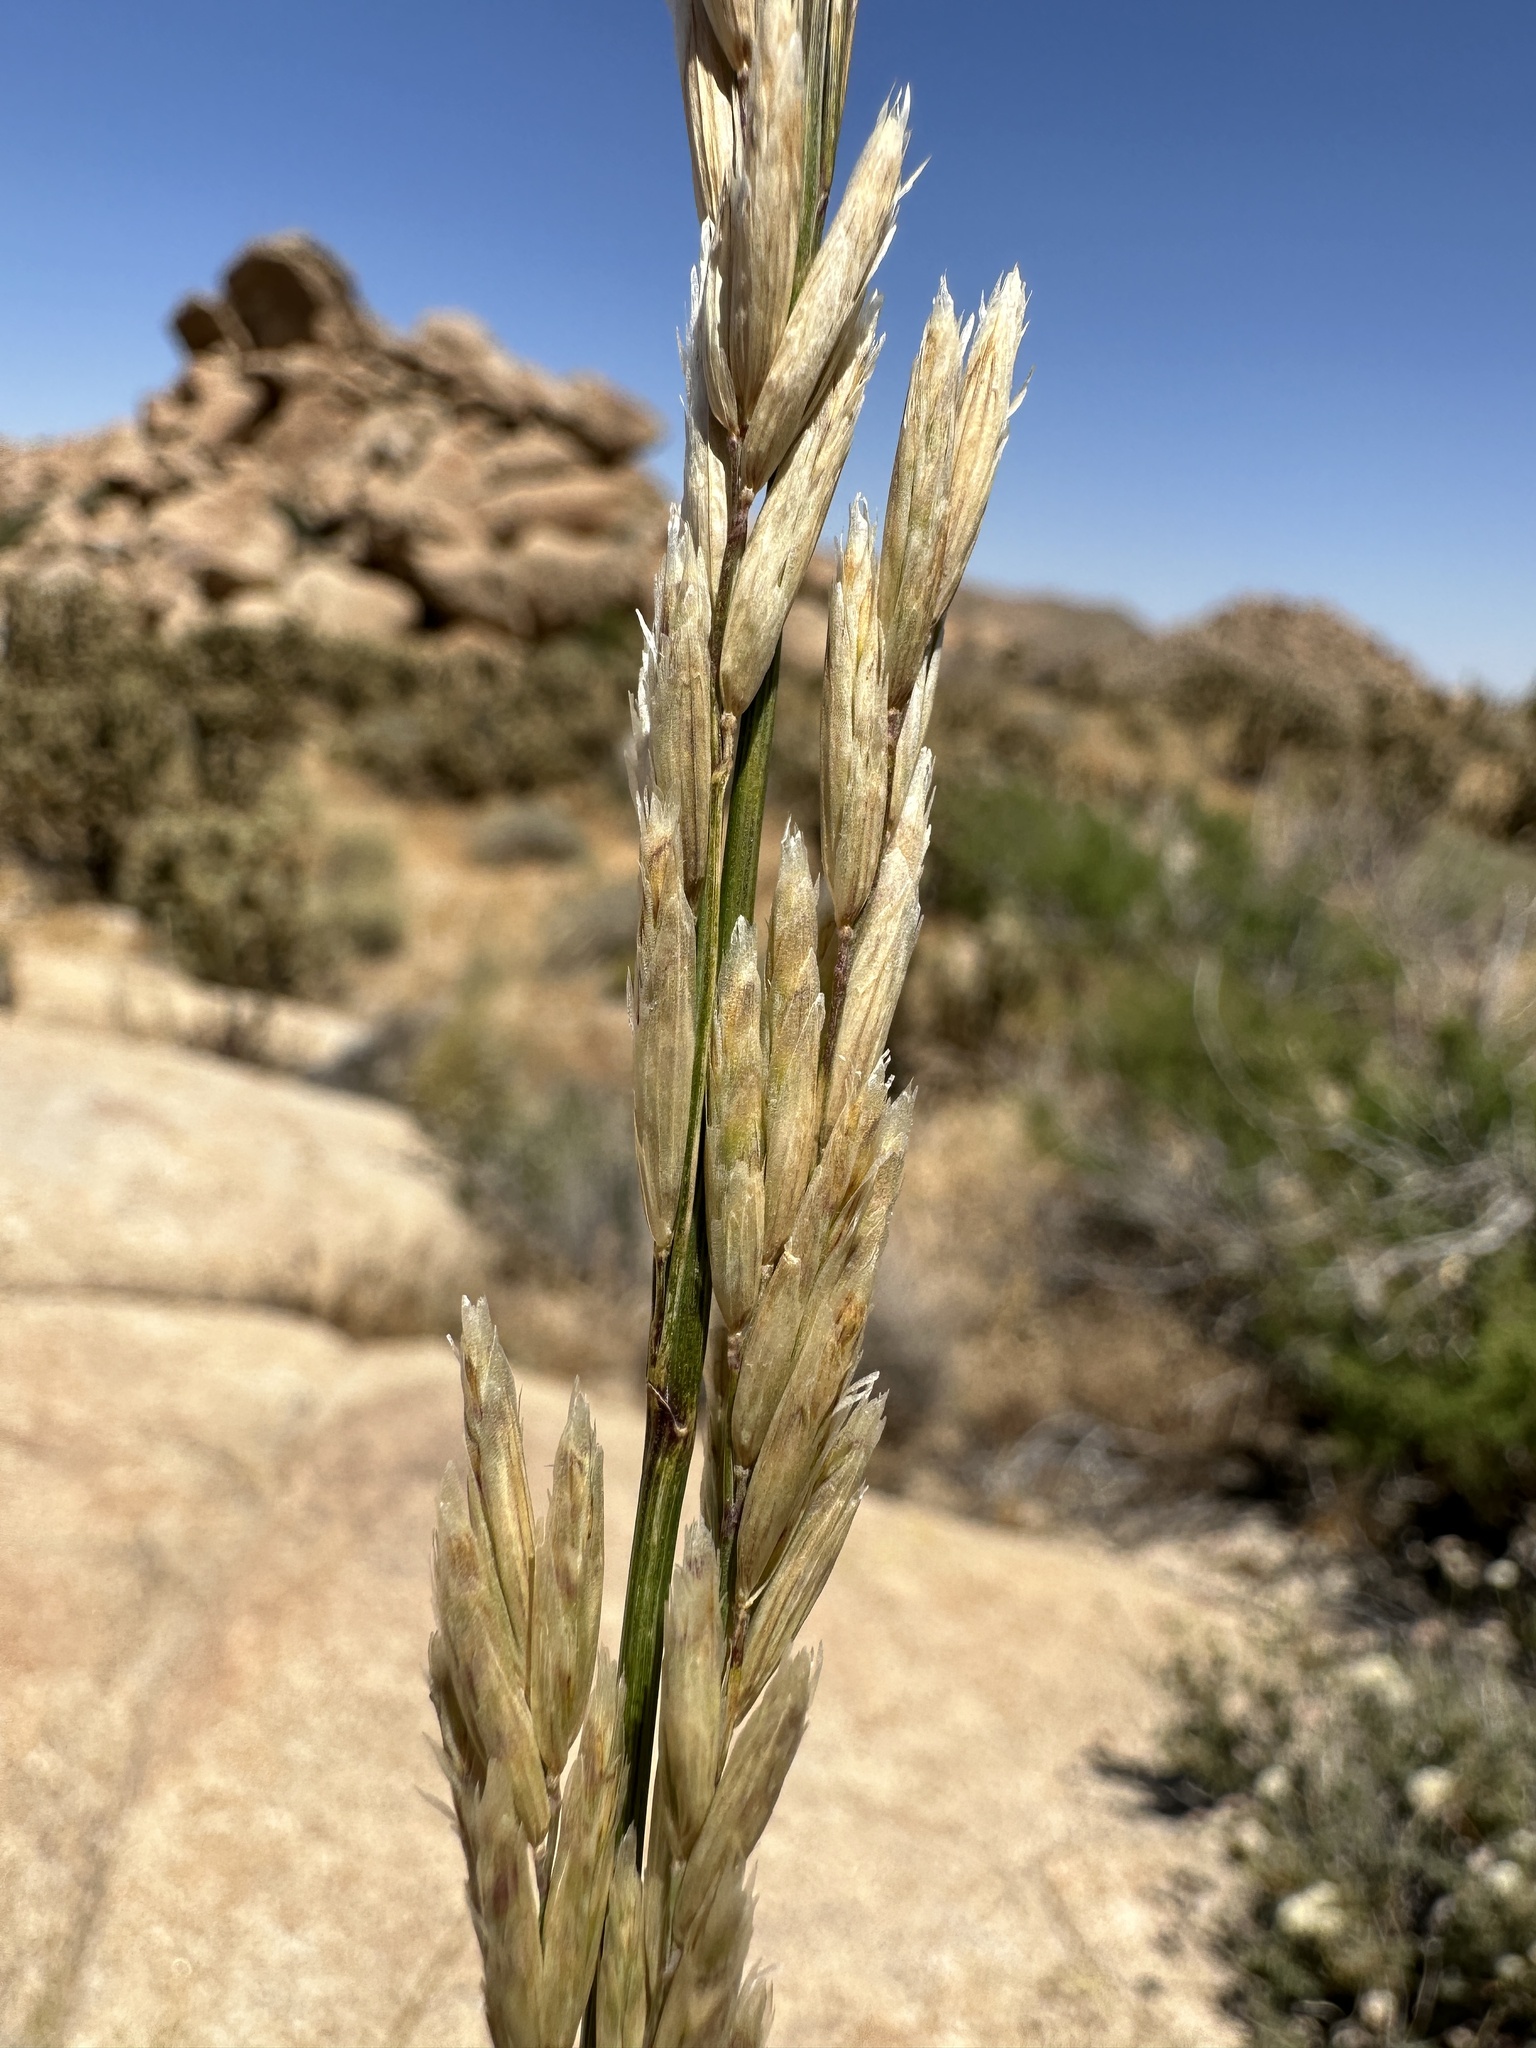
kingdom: Plantae
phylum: Tracheophyta
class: Liliopsida
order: Poales
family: Poaceae
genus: Melica
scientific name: Melica frutescens
